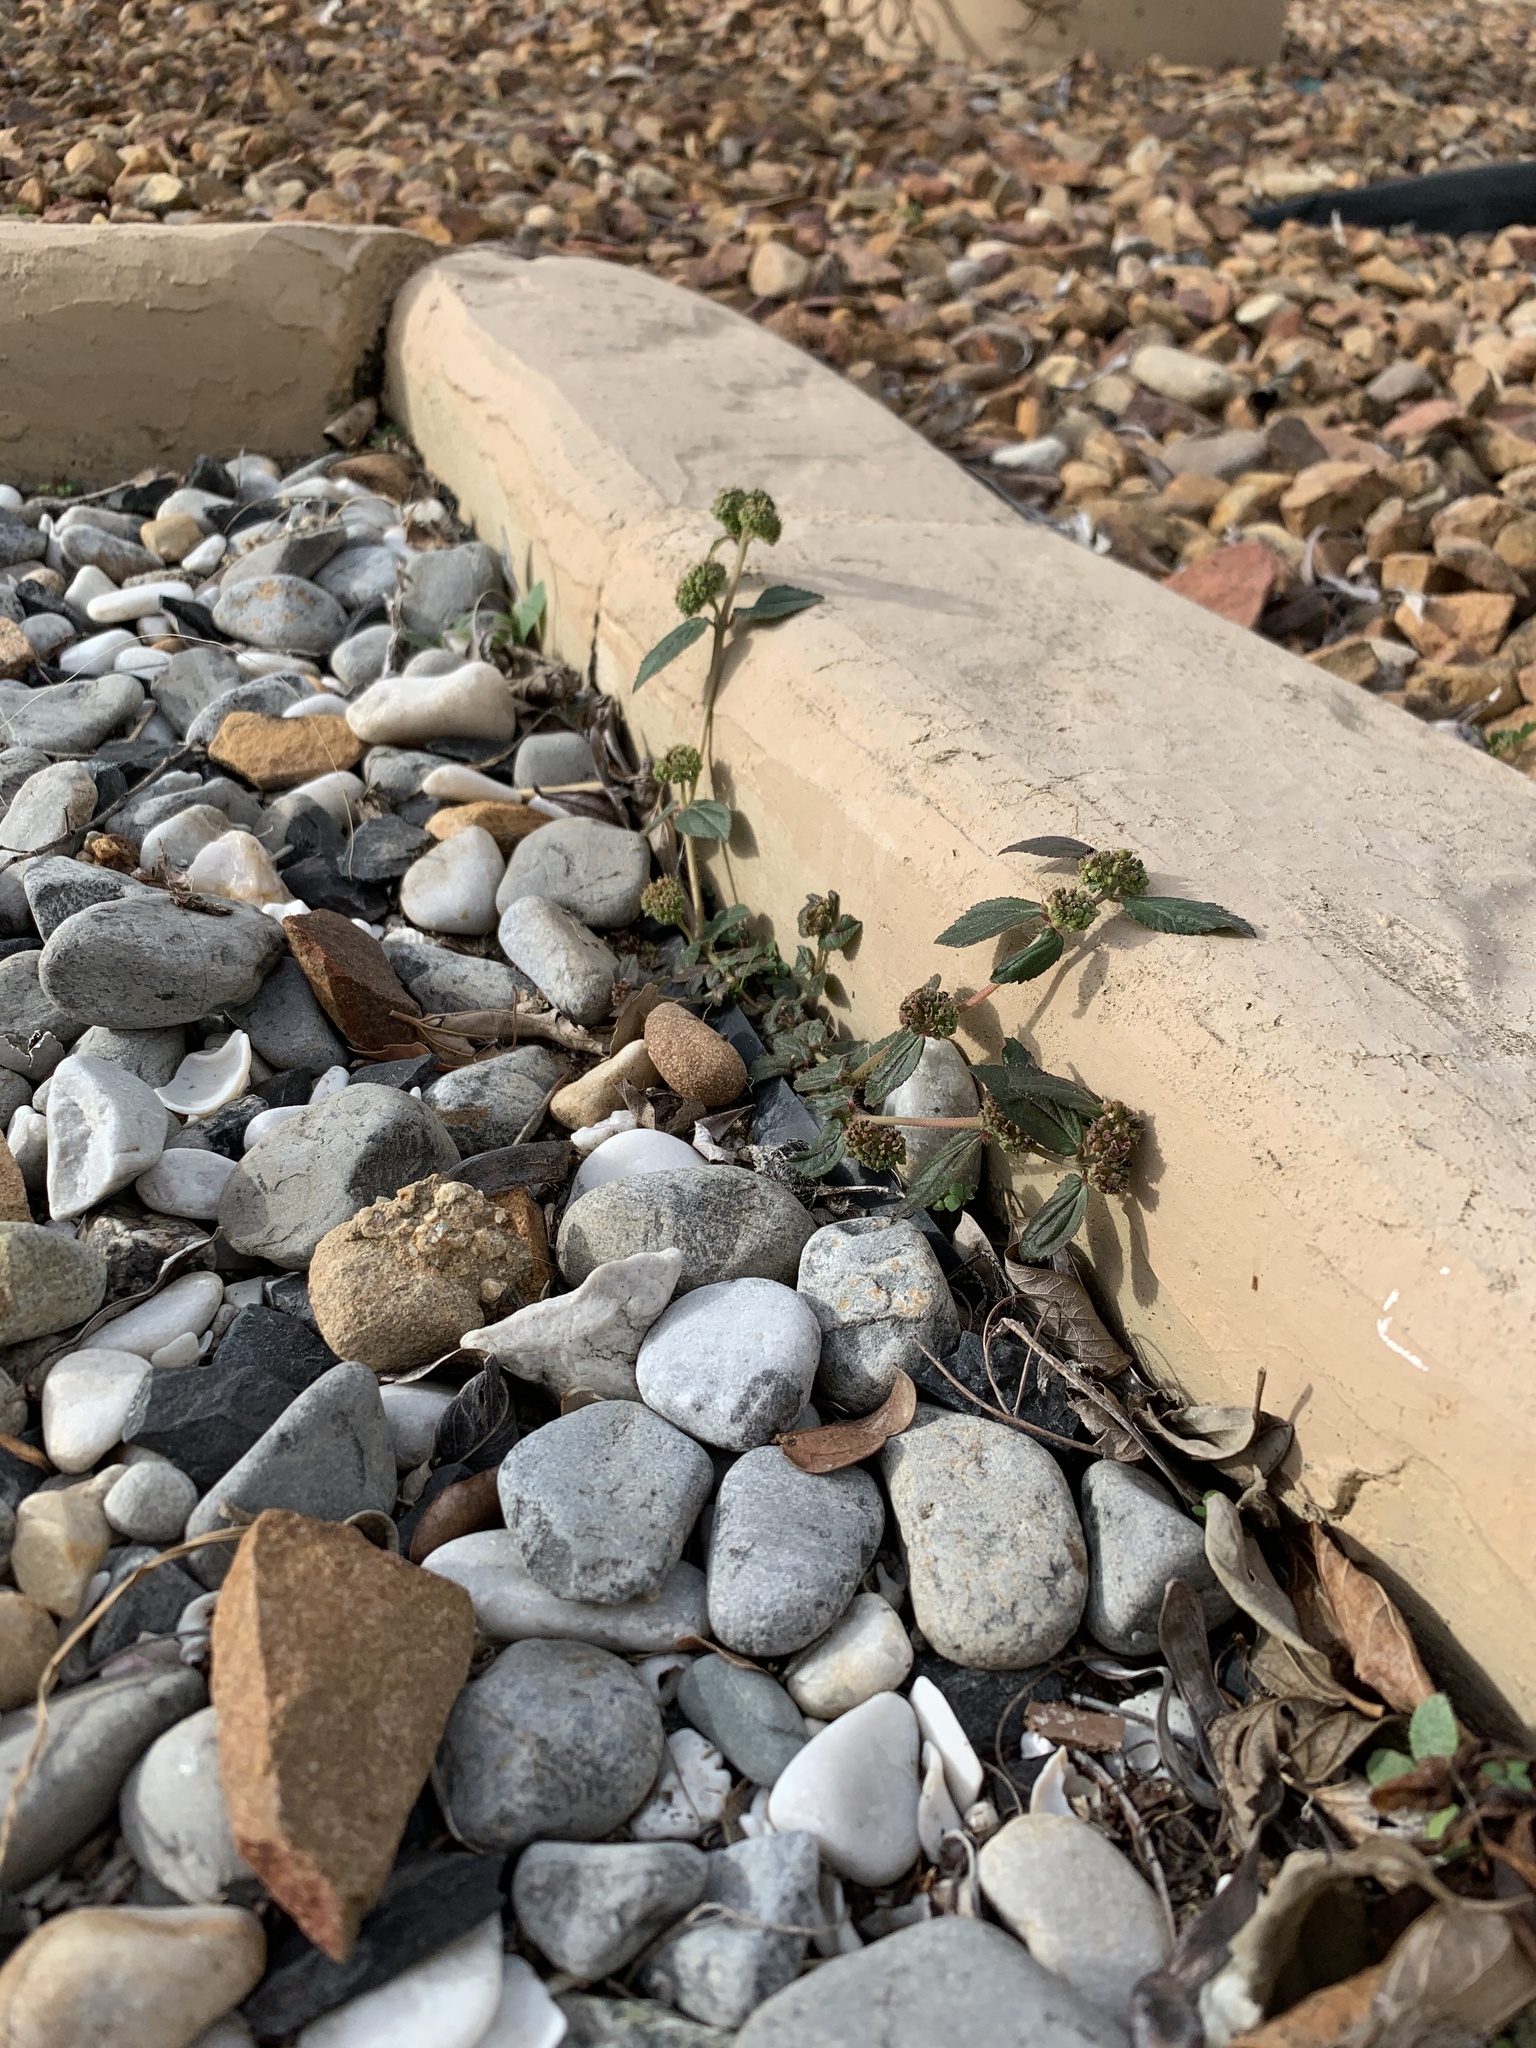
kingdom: Plantae
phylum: Tracheophyta
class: Magnoliopsida
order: Malpighiales
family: Euphorbiaceae
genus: Euphorbia
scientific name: Euphorbia hirta
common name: Pillpod sandmat
